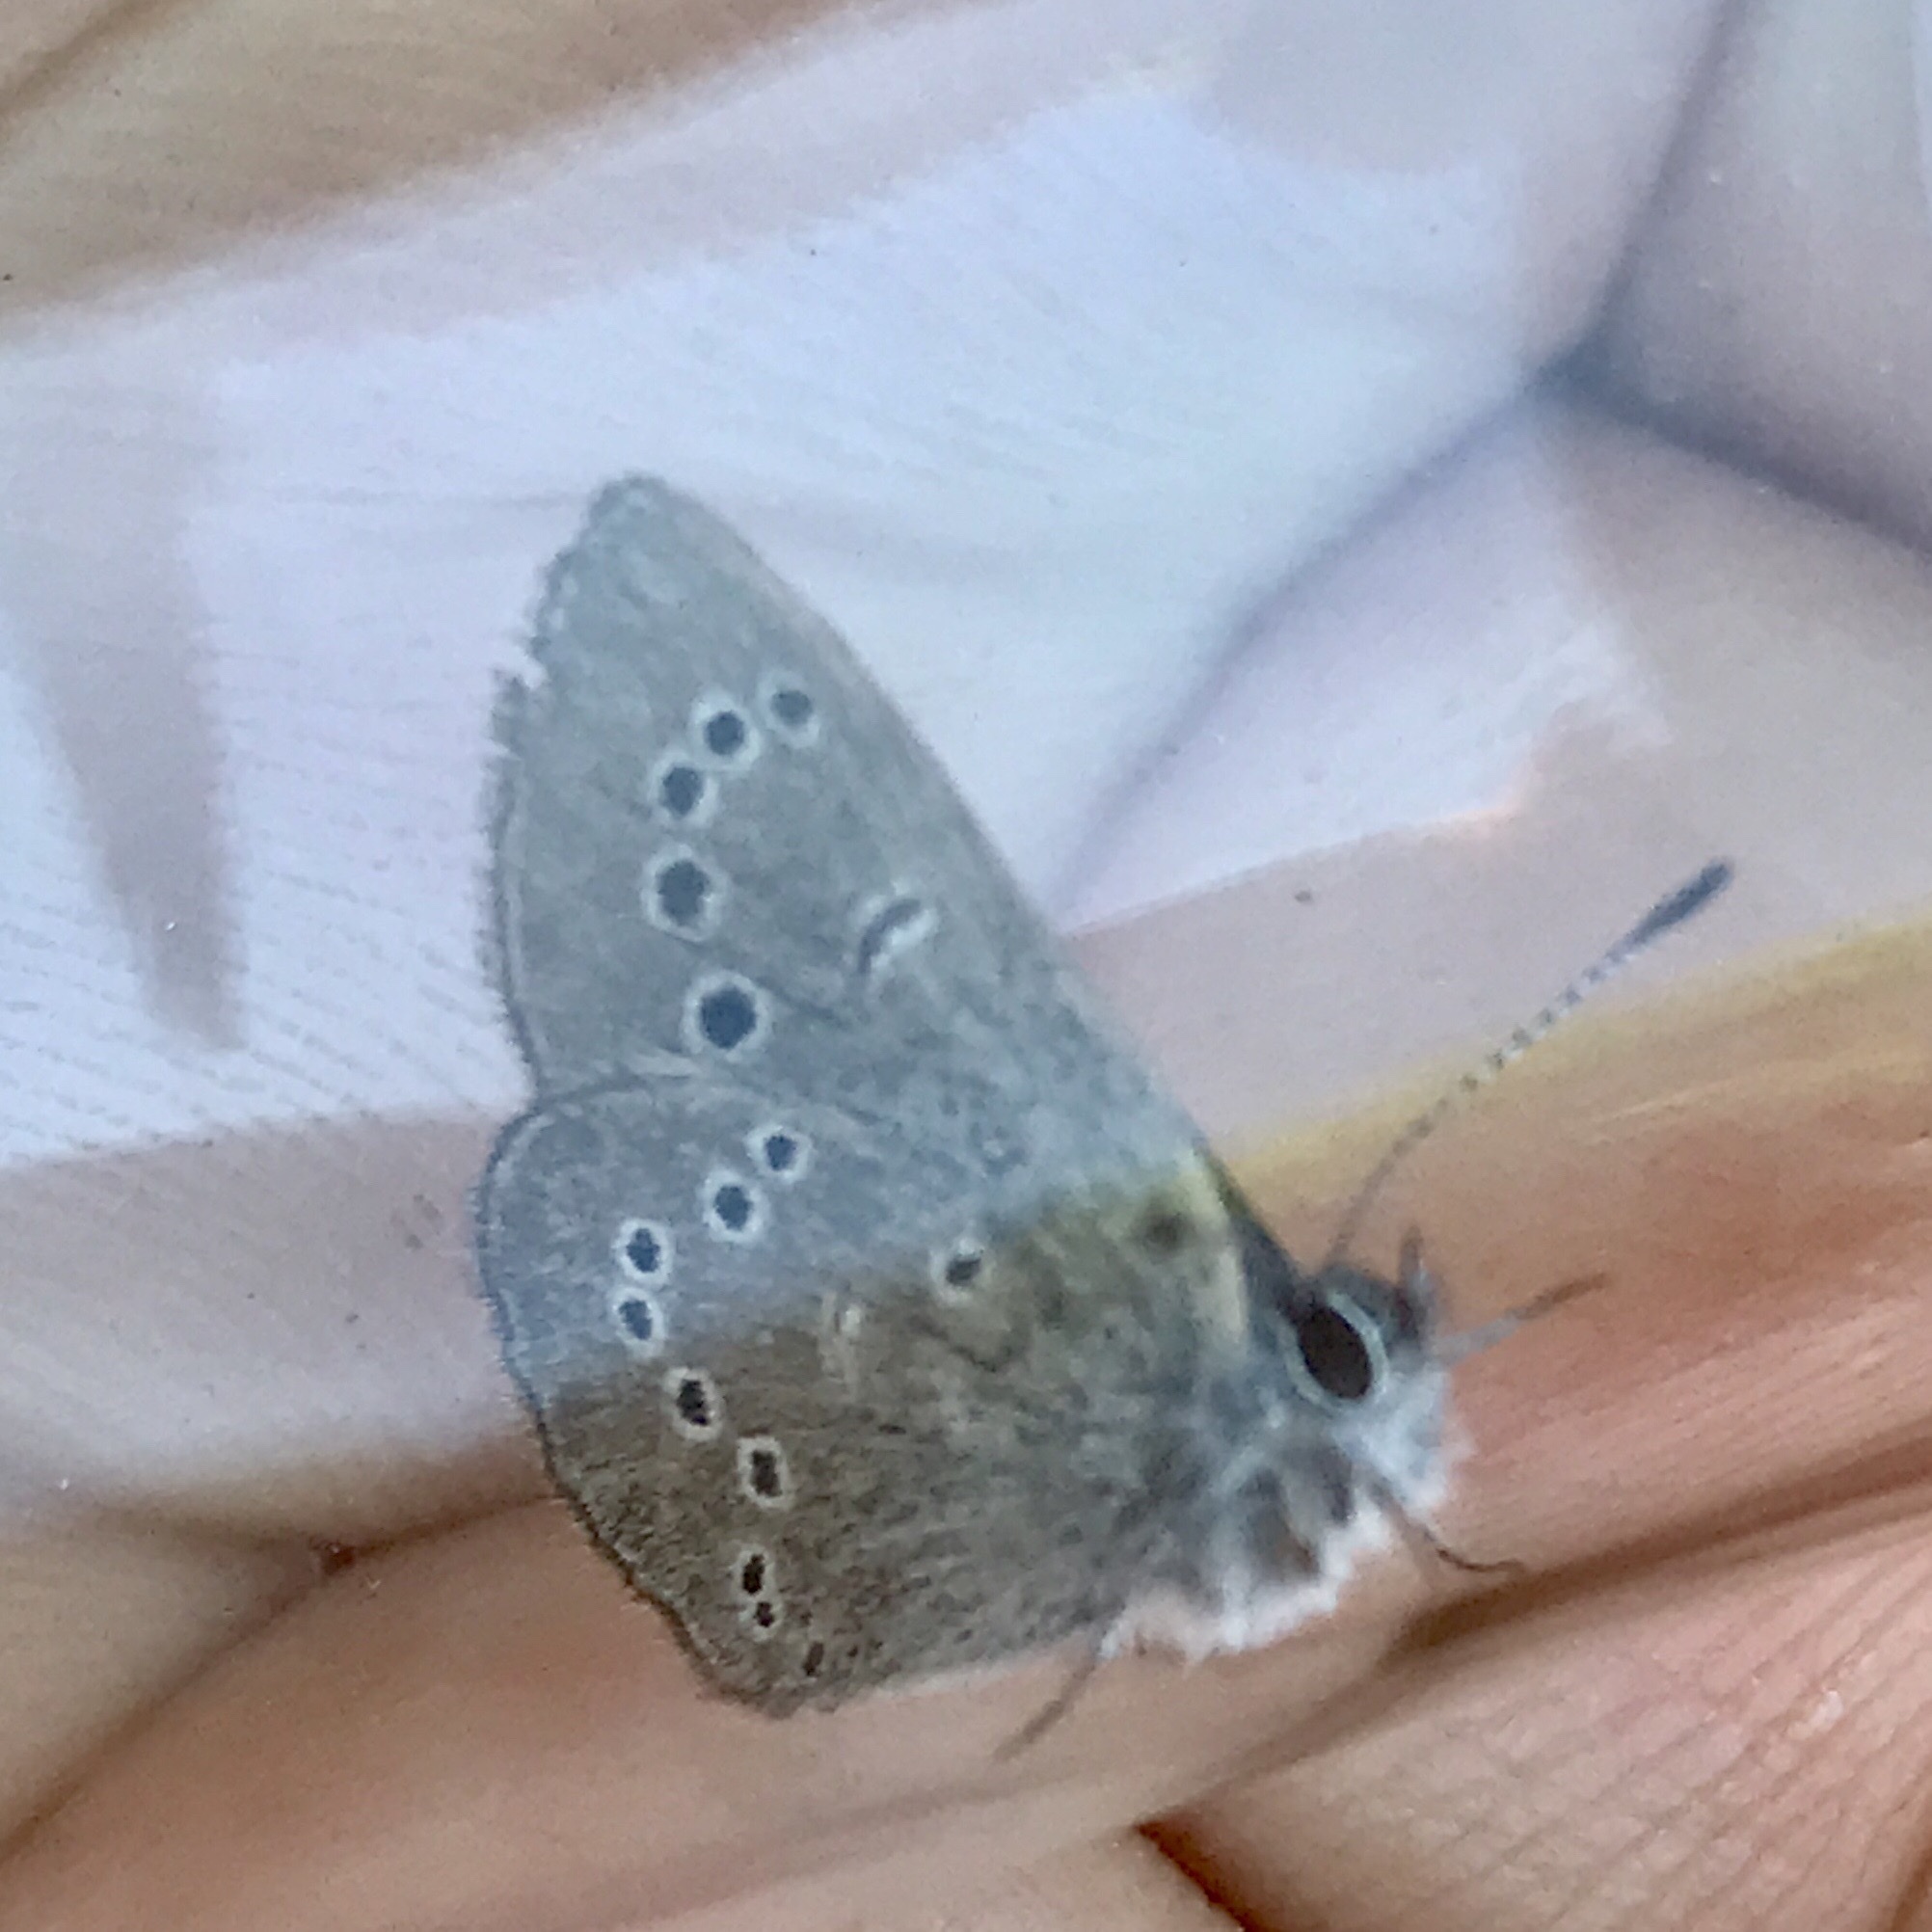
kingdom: Animalia
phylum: Arthropoda
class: Insecta
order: Lepidoptera
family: Lycaenidae
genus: Glaucopsyche
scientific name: Glaucopsyche lygdamus
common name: Silvery blue
